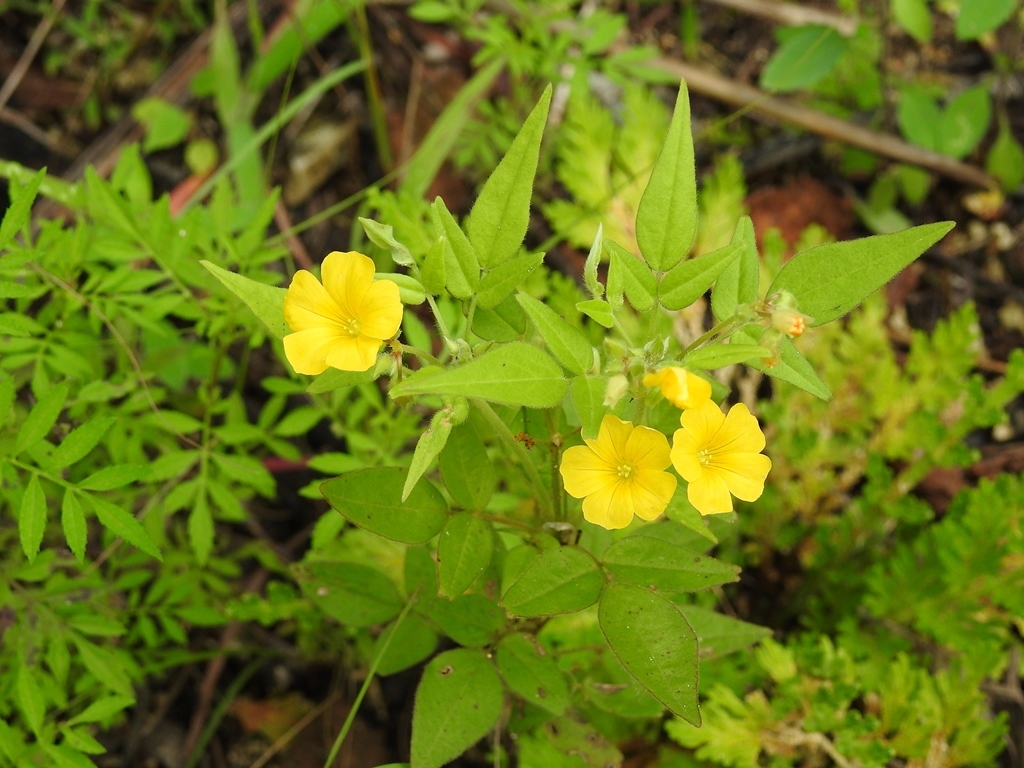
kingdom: Plantae
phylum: Tracheophyta
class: Magnoliopsida
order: Oxalidales
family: Oxalidaceae
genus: Oxalis
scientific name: Oxalis frutescens
